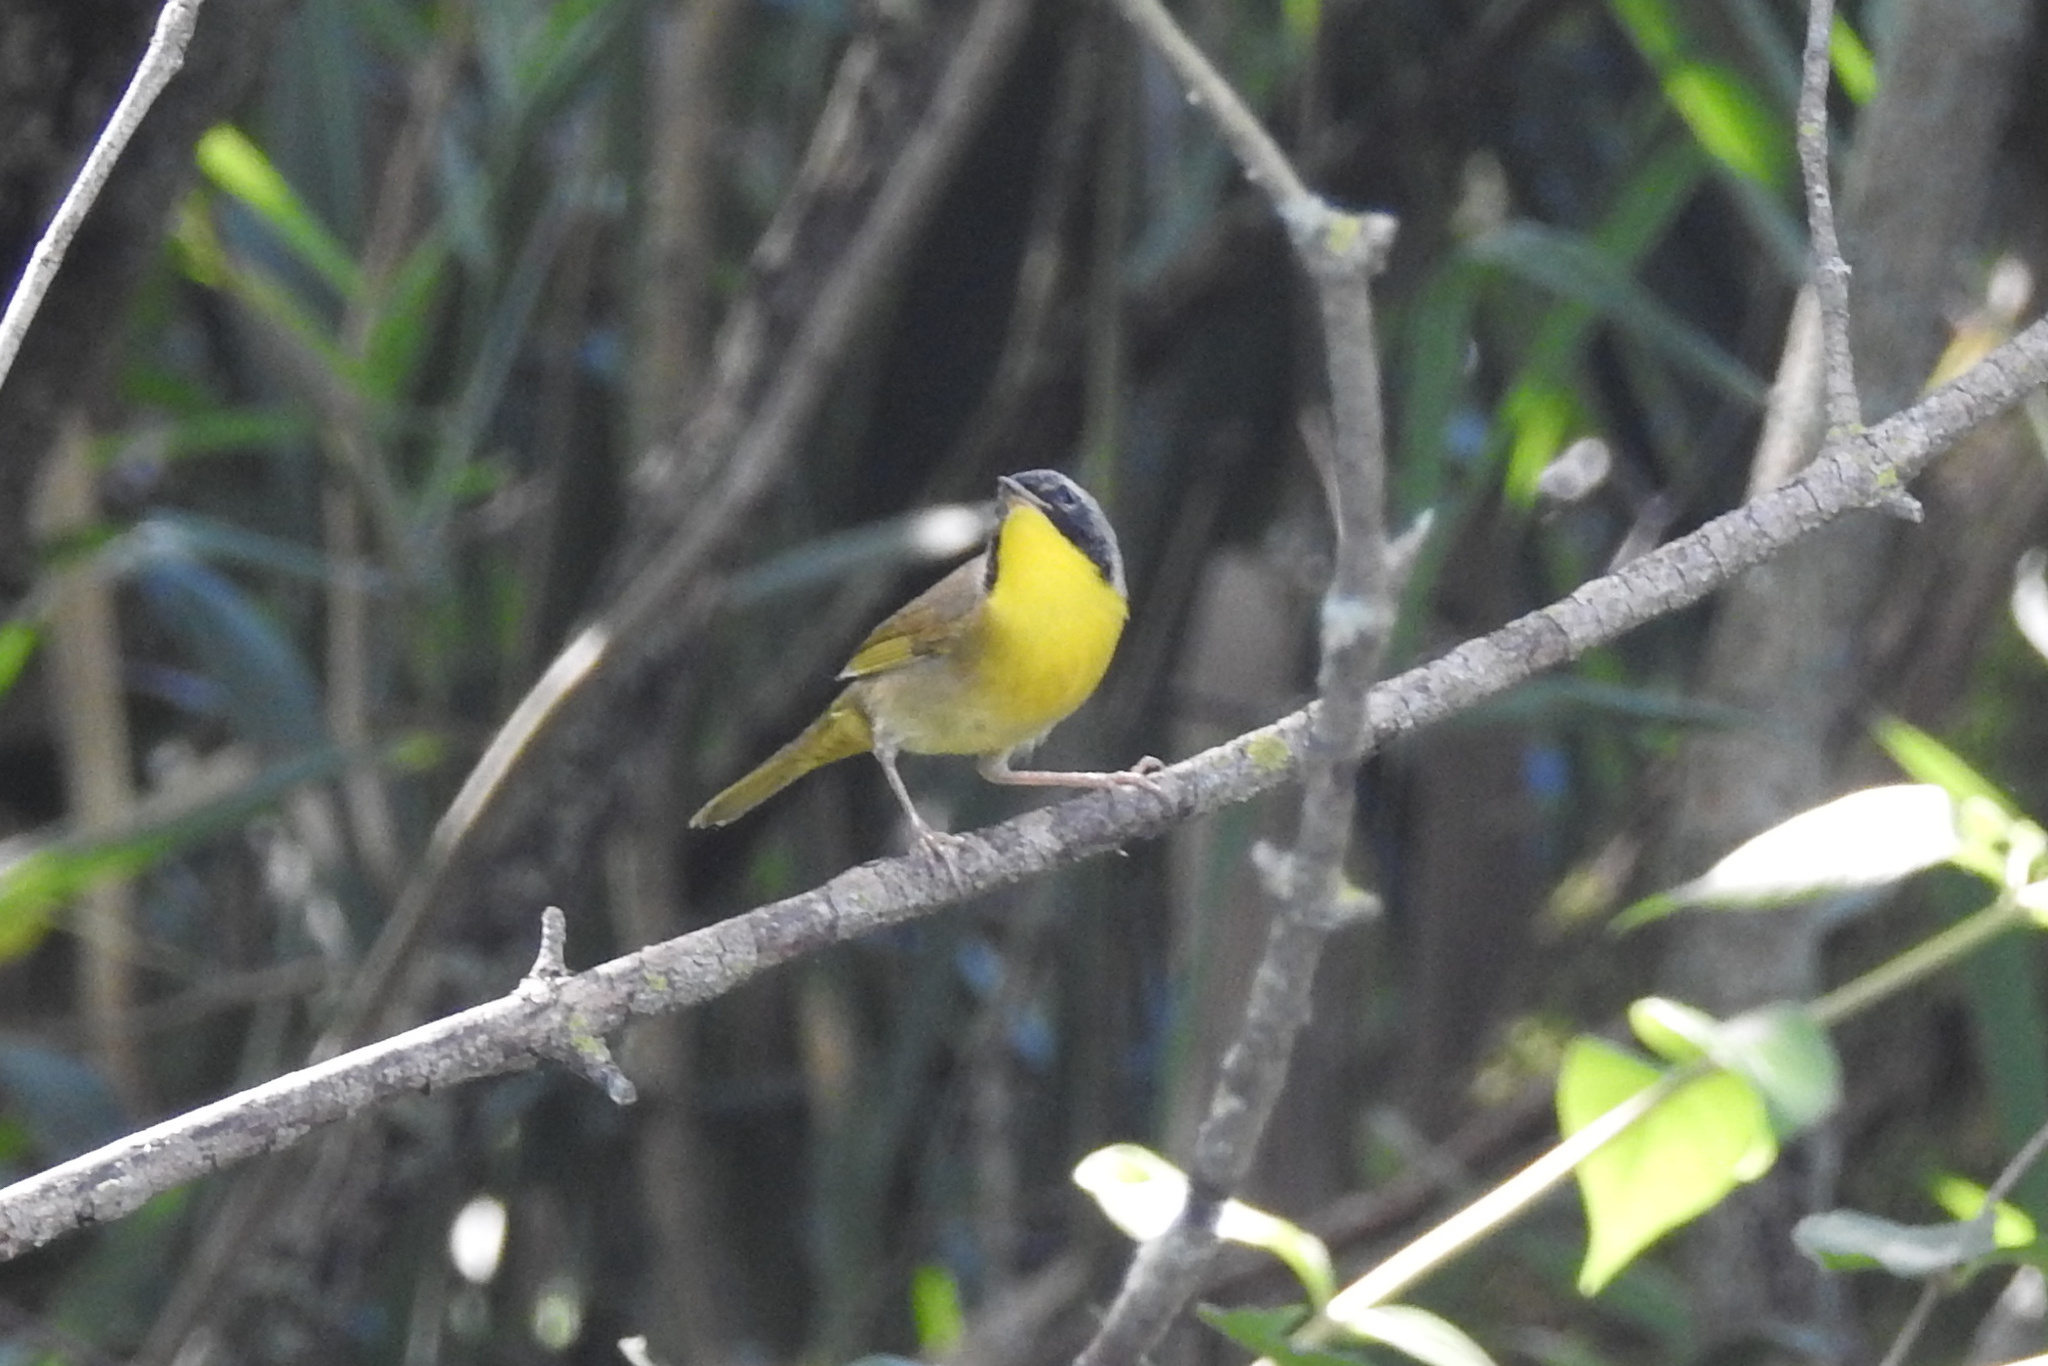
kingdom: Animalia
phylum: Chordata
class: Aves
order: Passeriformes
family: Parulidae
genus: Geothlypis
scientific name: Geothlypis trichas
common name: Common yellowthroat
